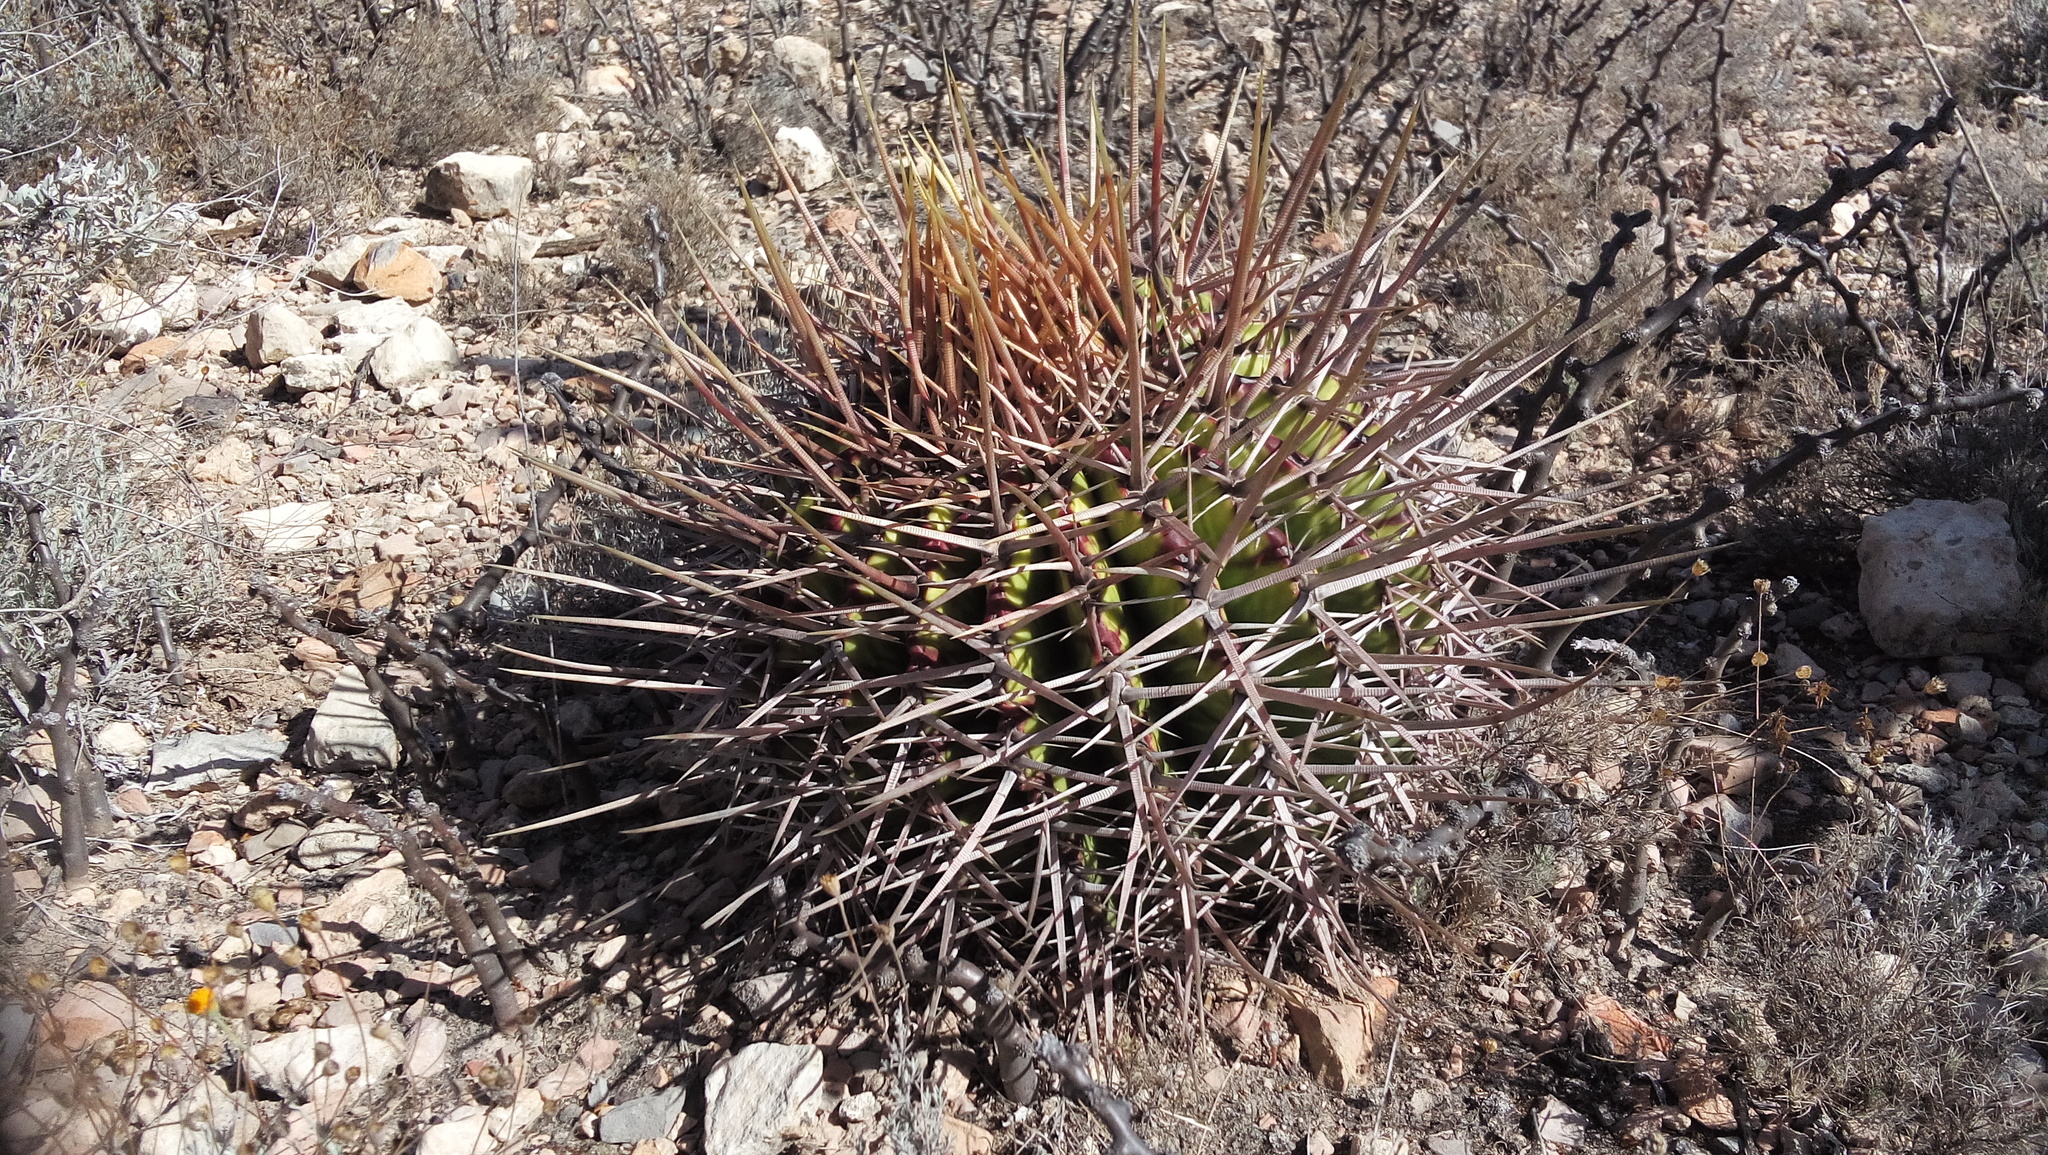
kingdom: Plantae
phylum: Tracheophyta
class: Magnoliopsida
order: Caryophyllales
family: Cactaceae
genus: Echinocactus
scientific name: Echinocactus platyacanthus
